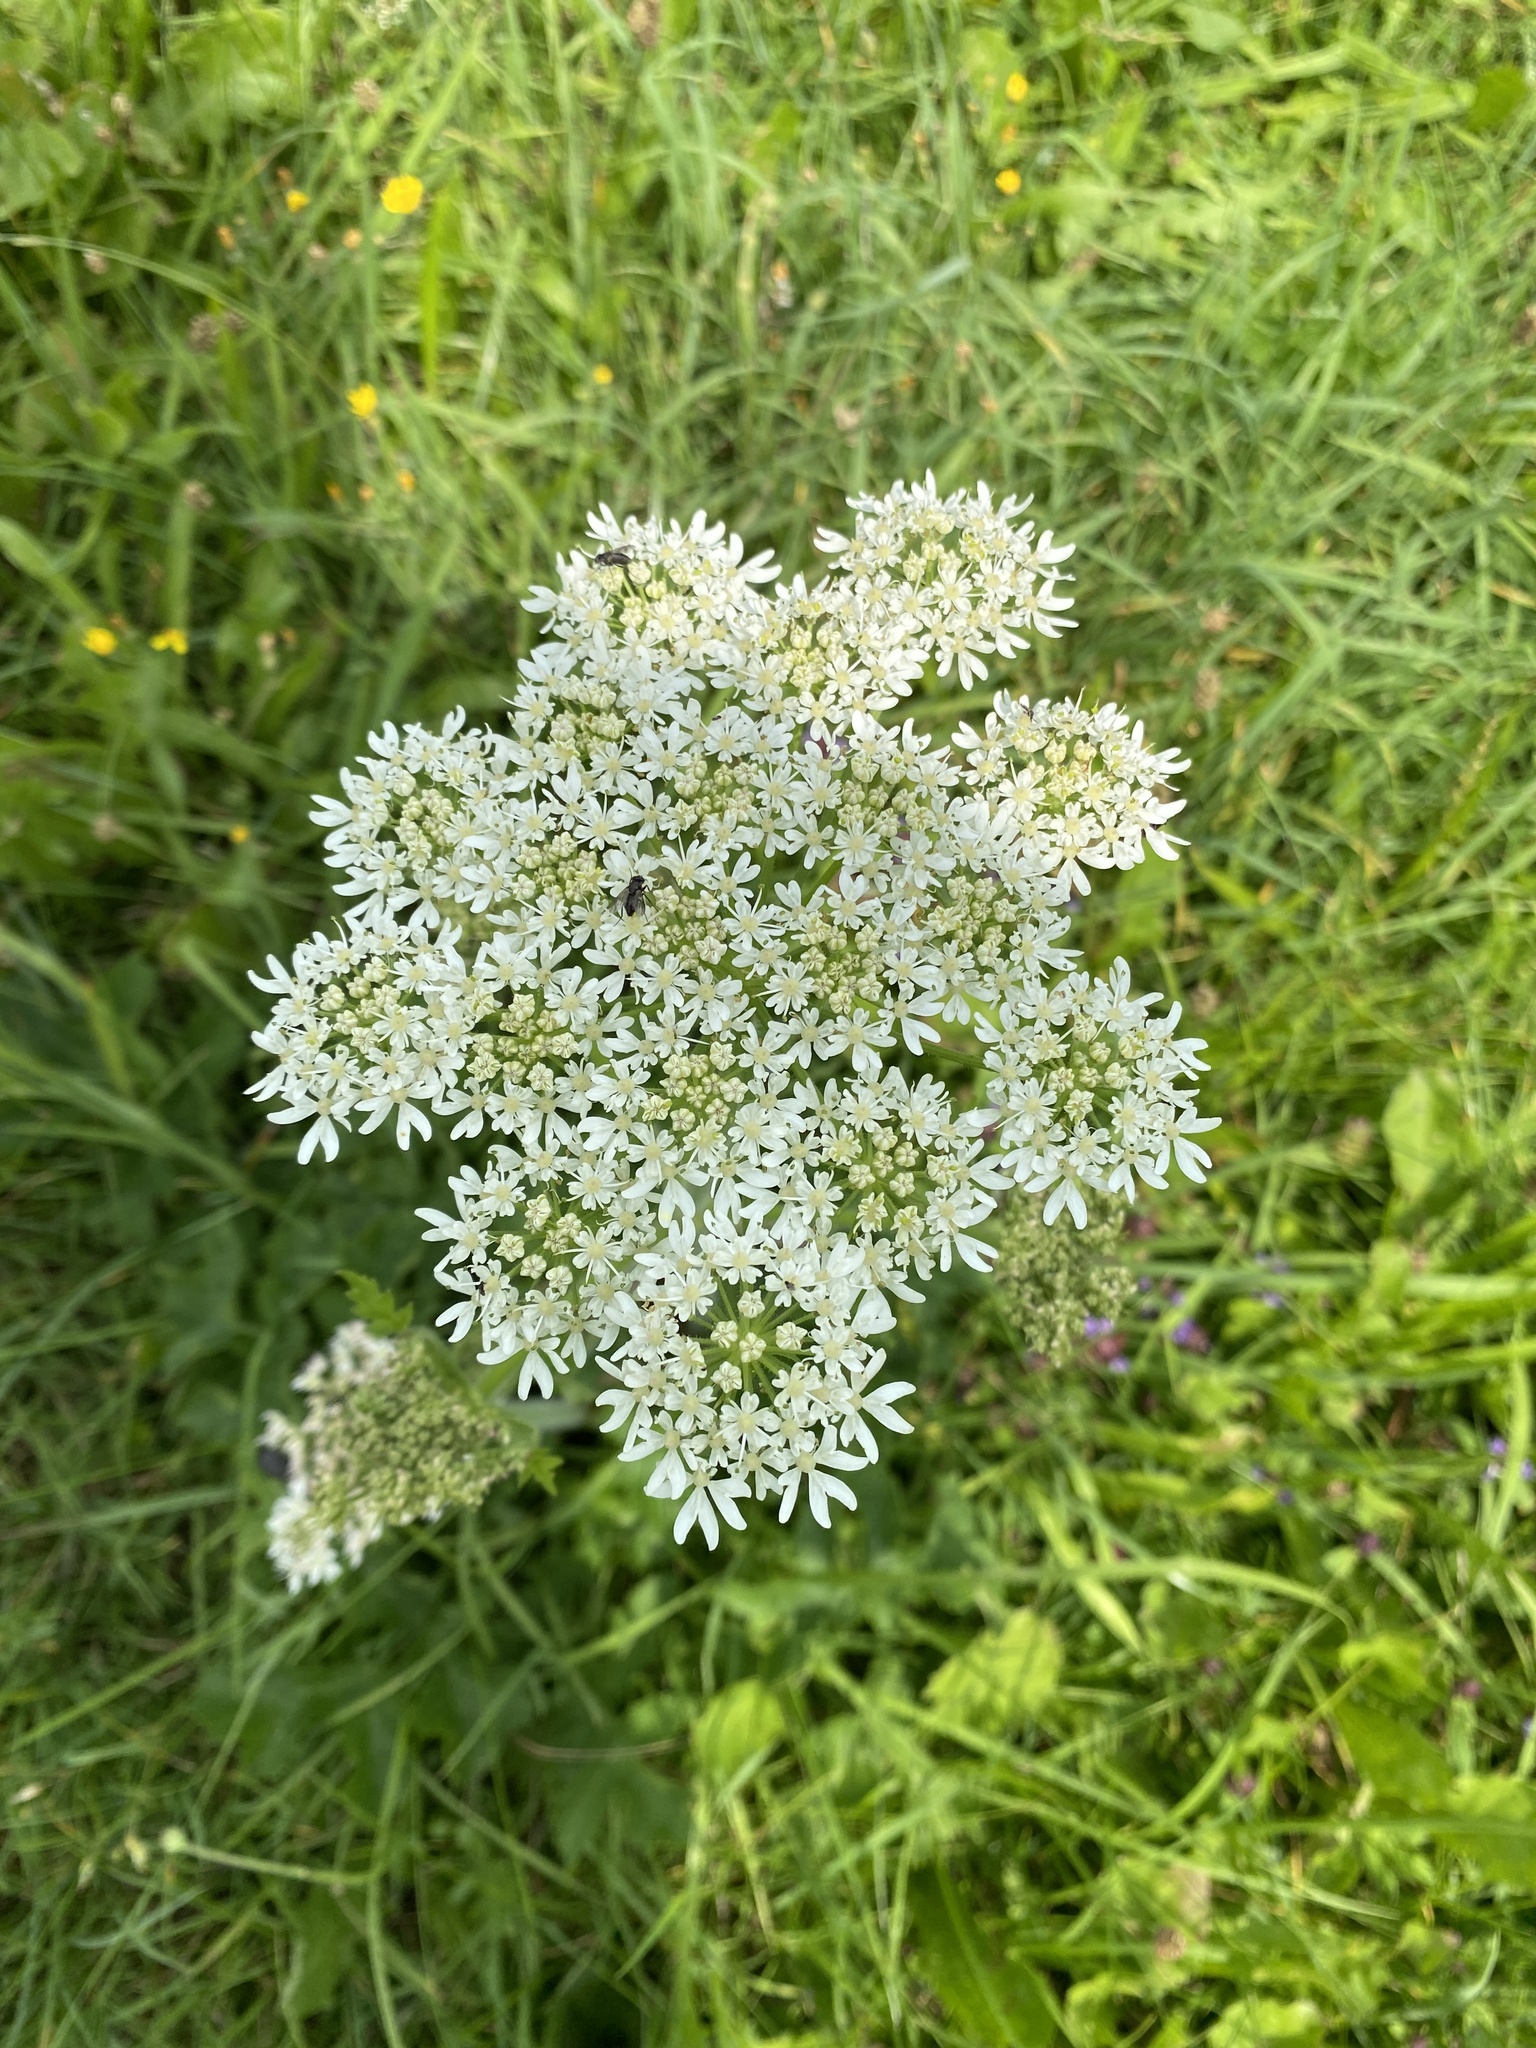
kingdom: Plantae
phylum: Tracheophyta
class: Magnoliopsida
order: Apiales
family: Apiaceae
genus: Heracleum
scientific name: Heracleum sphondylium
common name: Hogweed
